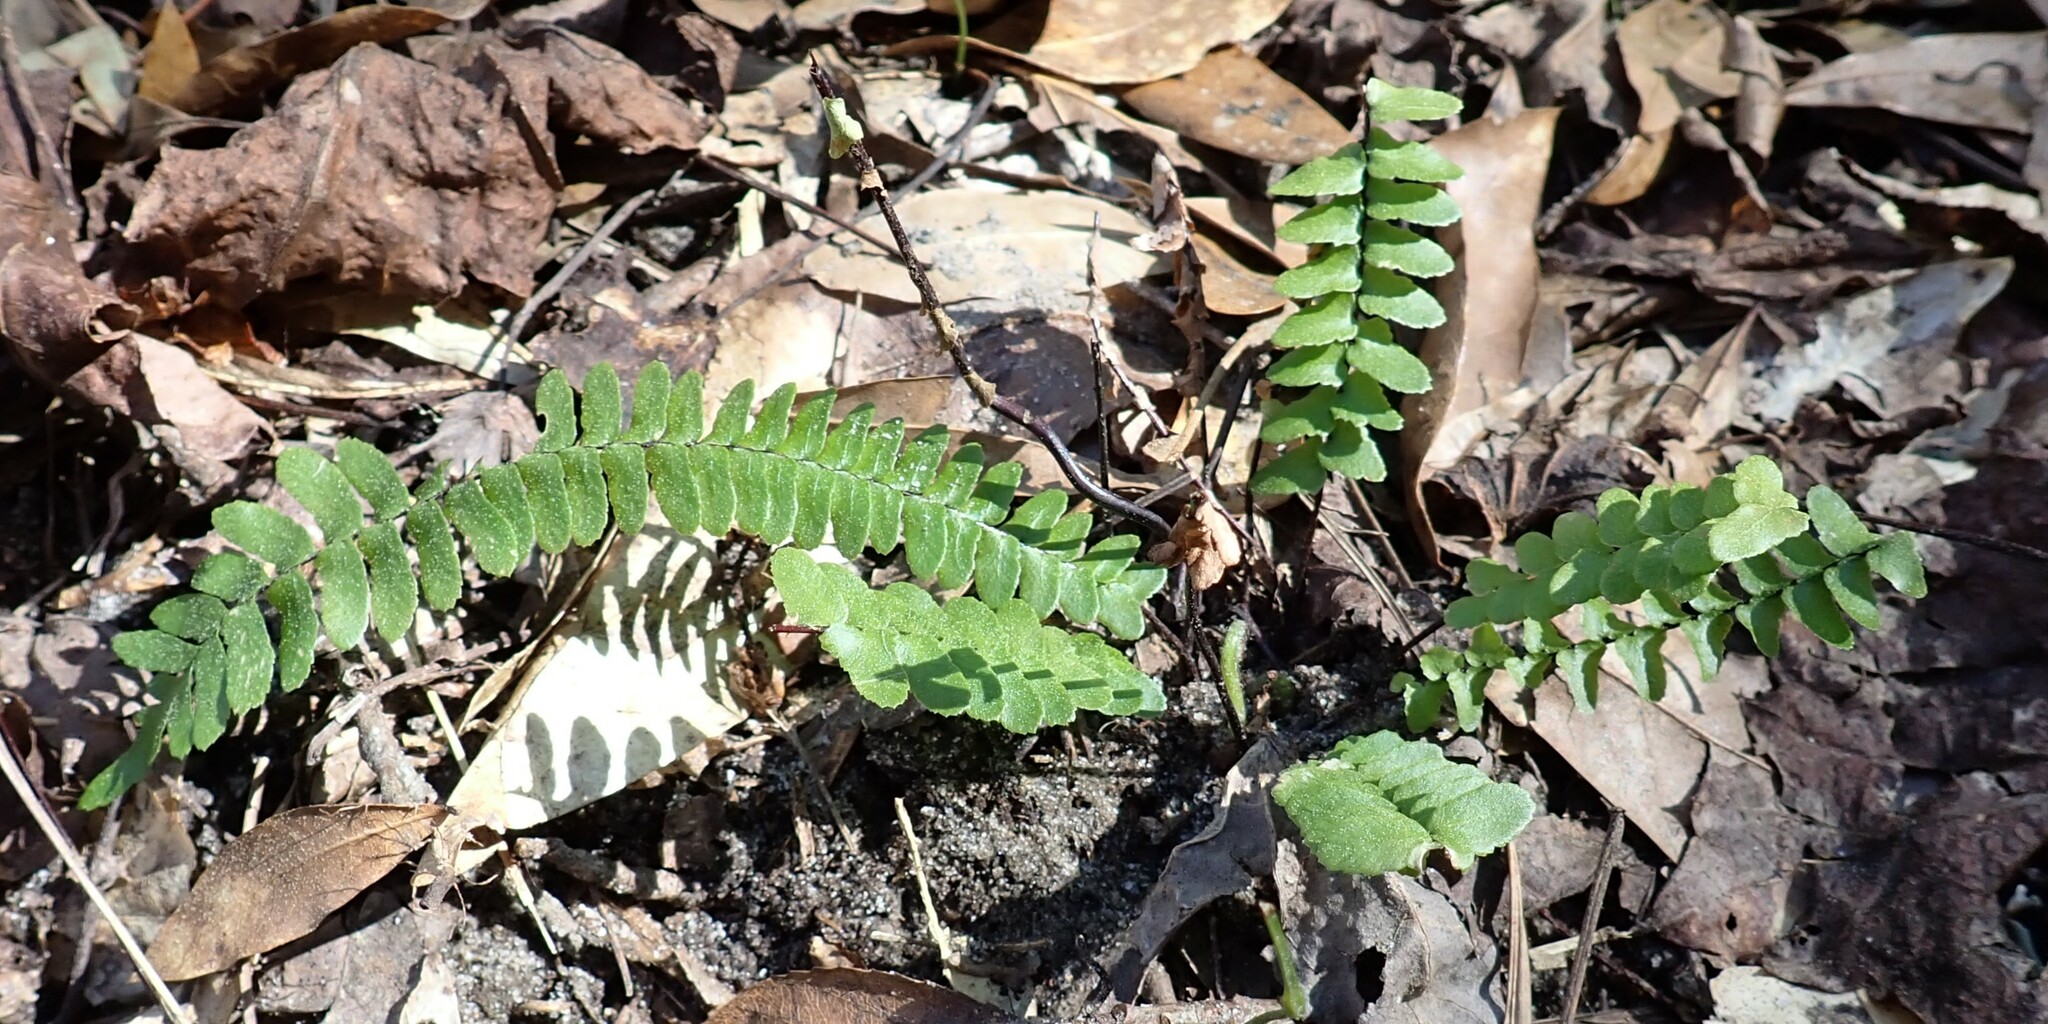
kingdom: Plantae
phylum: Tracheophyta
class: Polypodiopsida
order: Polypodiales
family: Aspleniaceae
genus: Asplenium
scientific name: Asplenium platyneuron
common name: Ebony spleenwort
